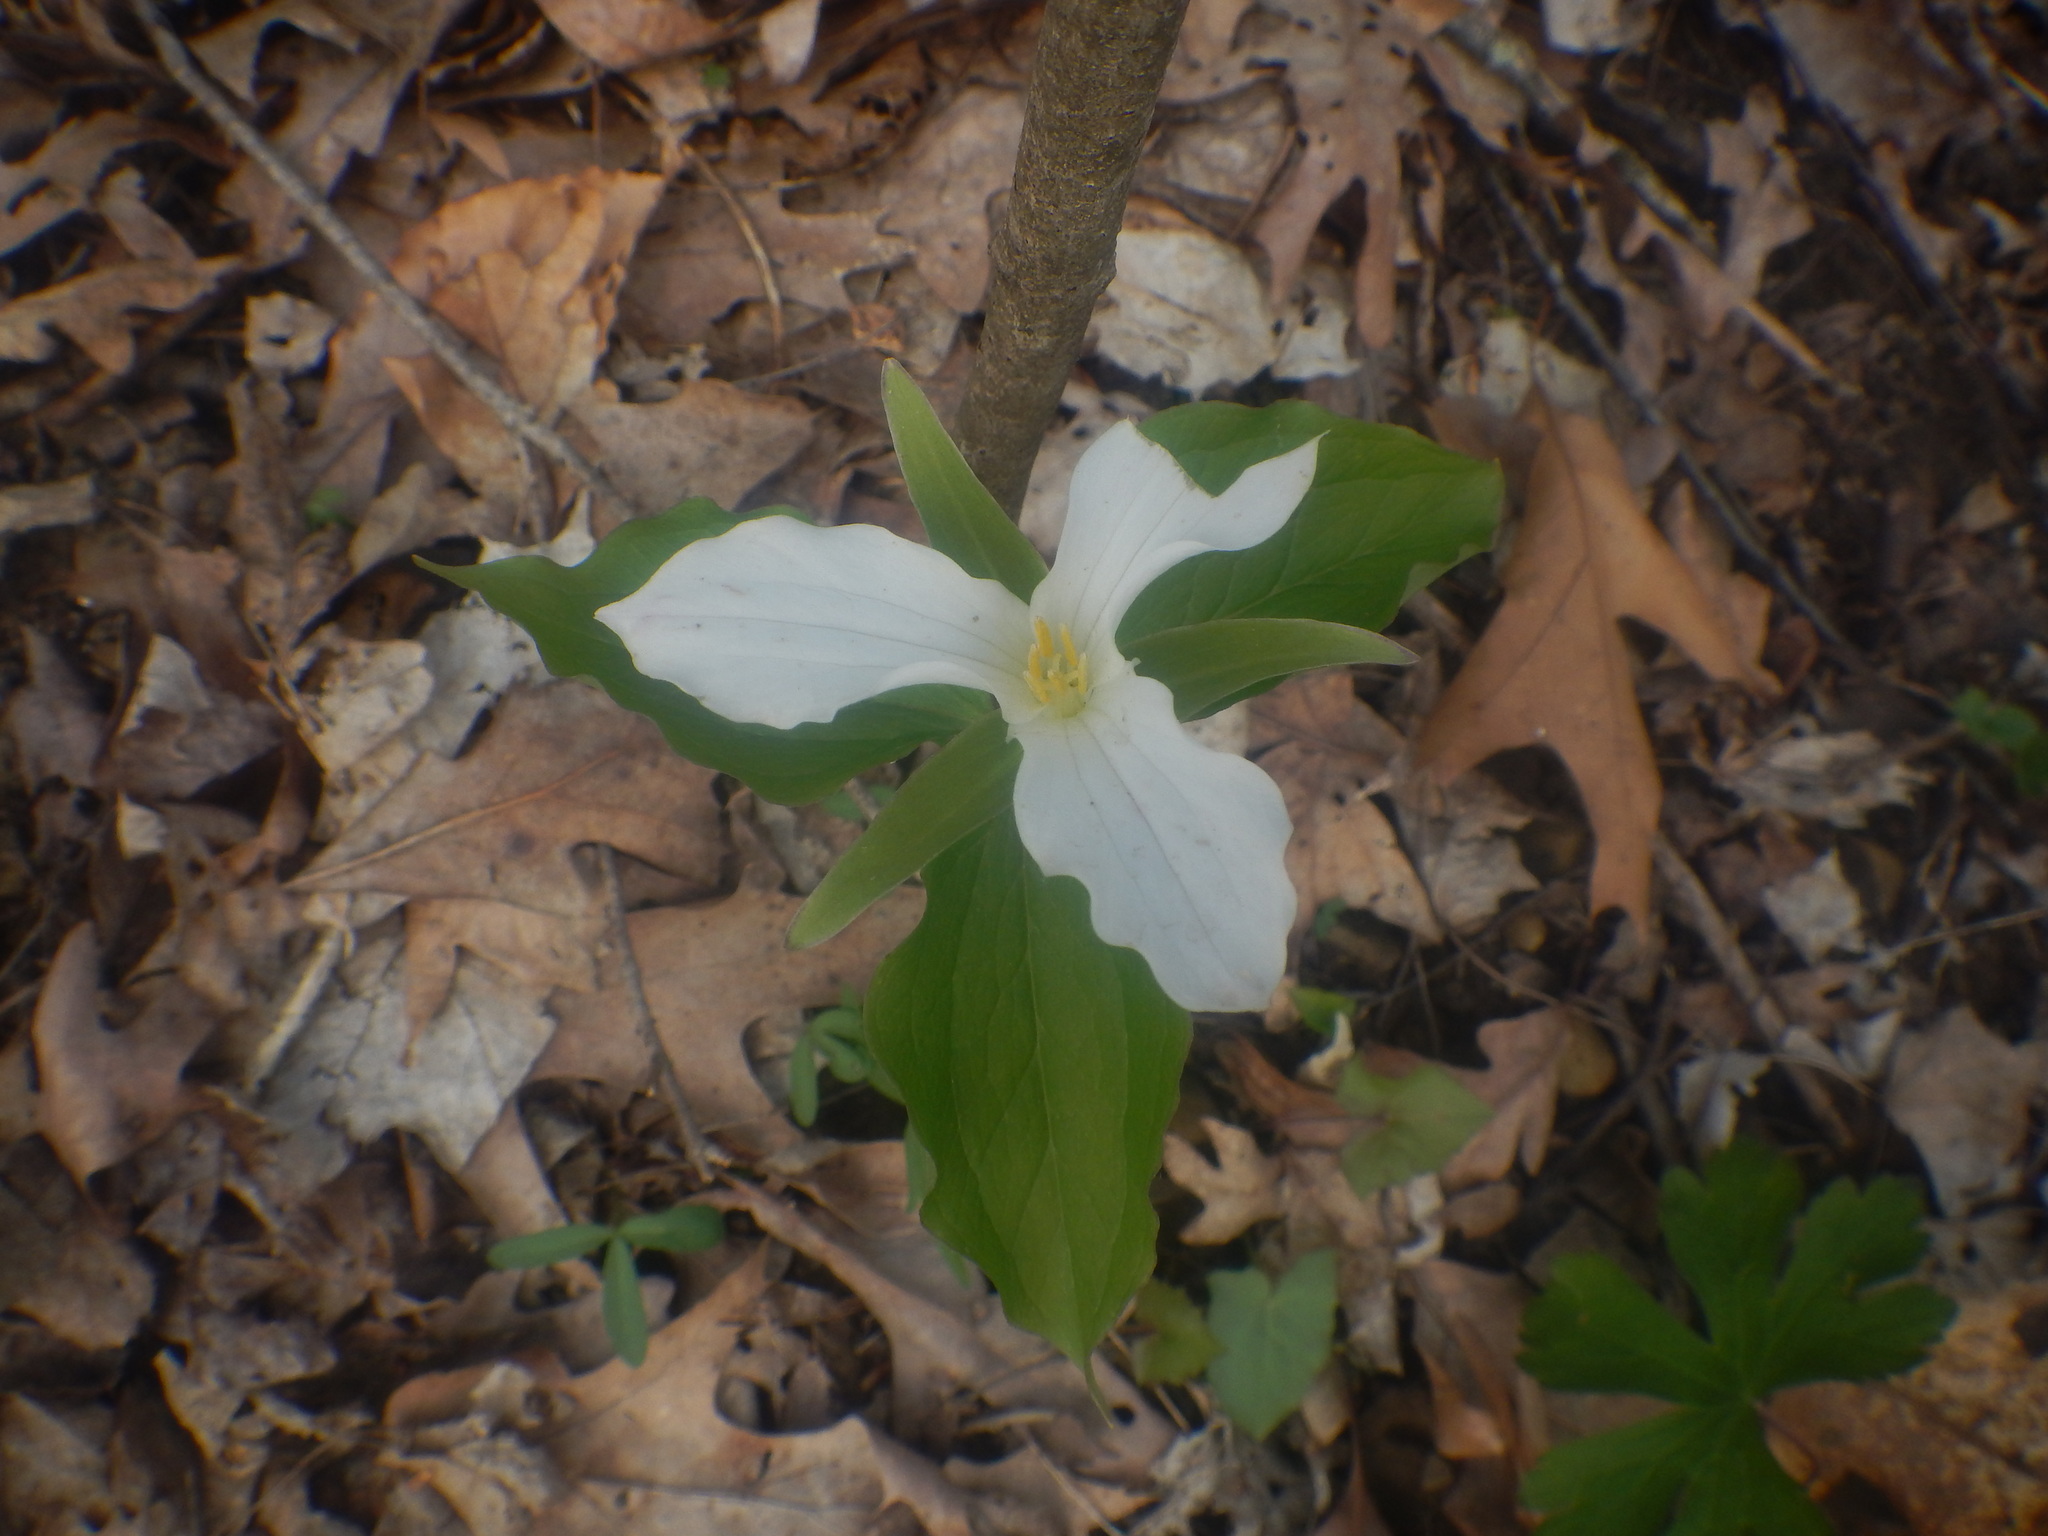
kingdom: Plantae
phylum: Tracheophyta
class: Liliopsida
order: Liliales
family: Melanthiaceae
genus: Trillium
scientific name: Trillium grandiflorum
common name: Great white trillium
